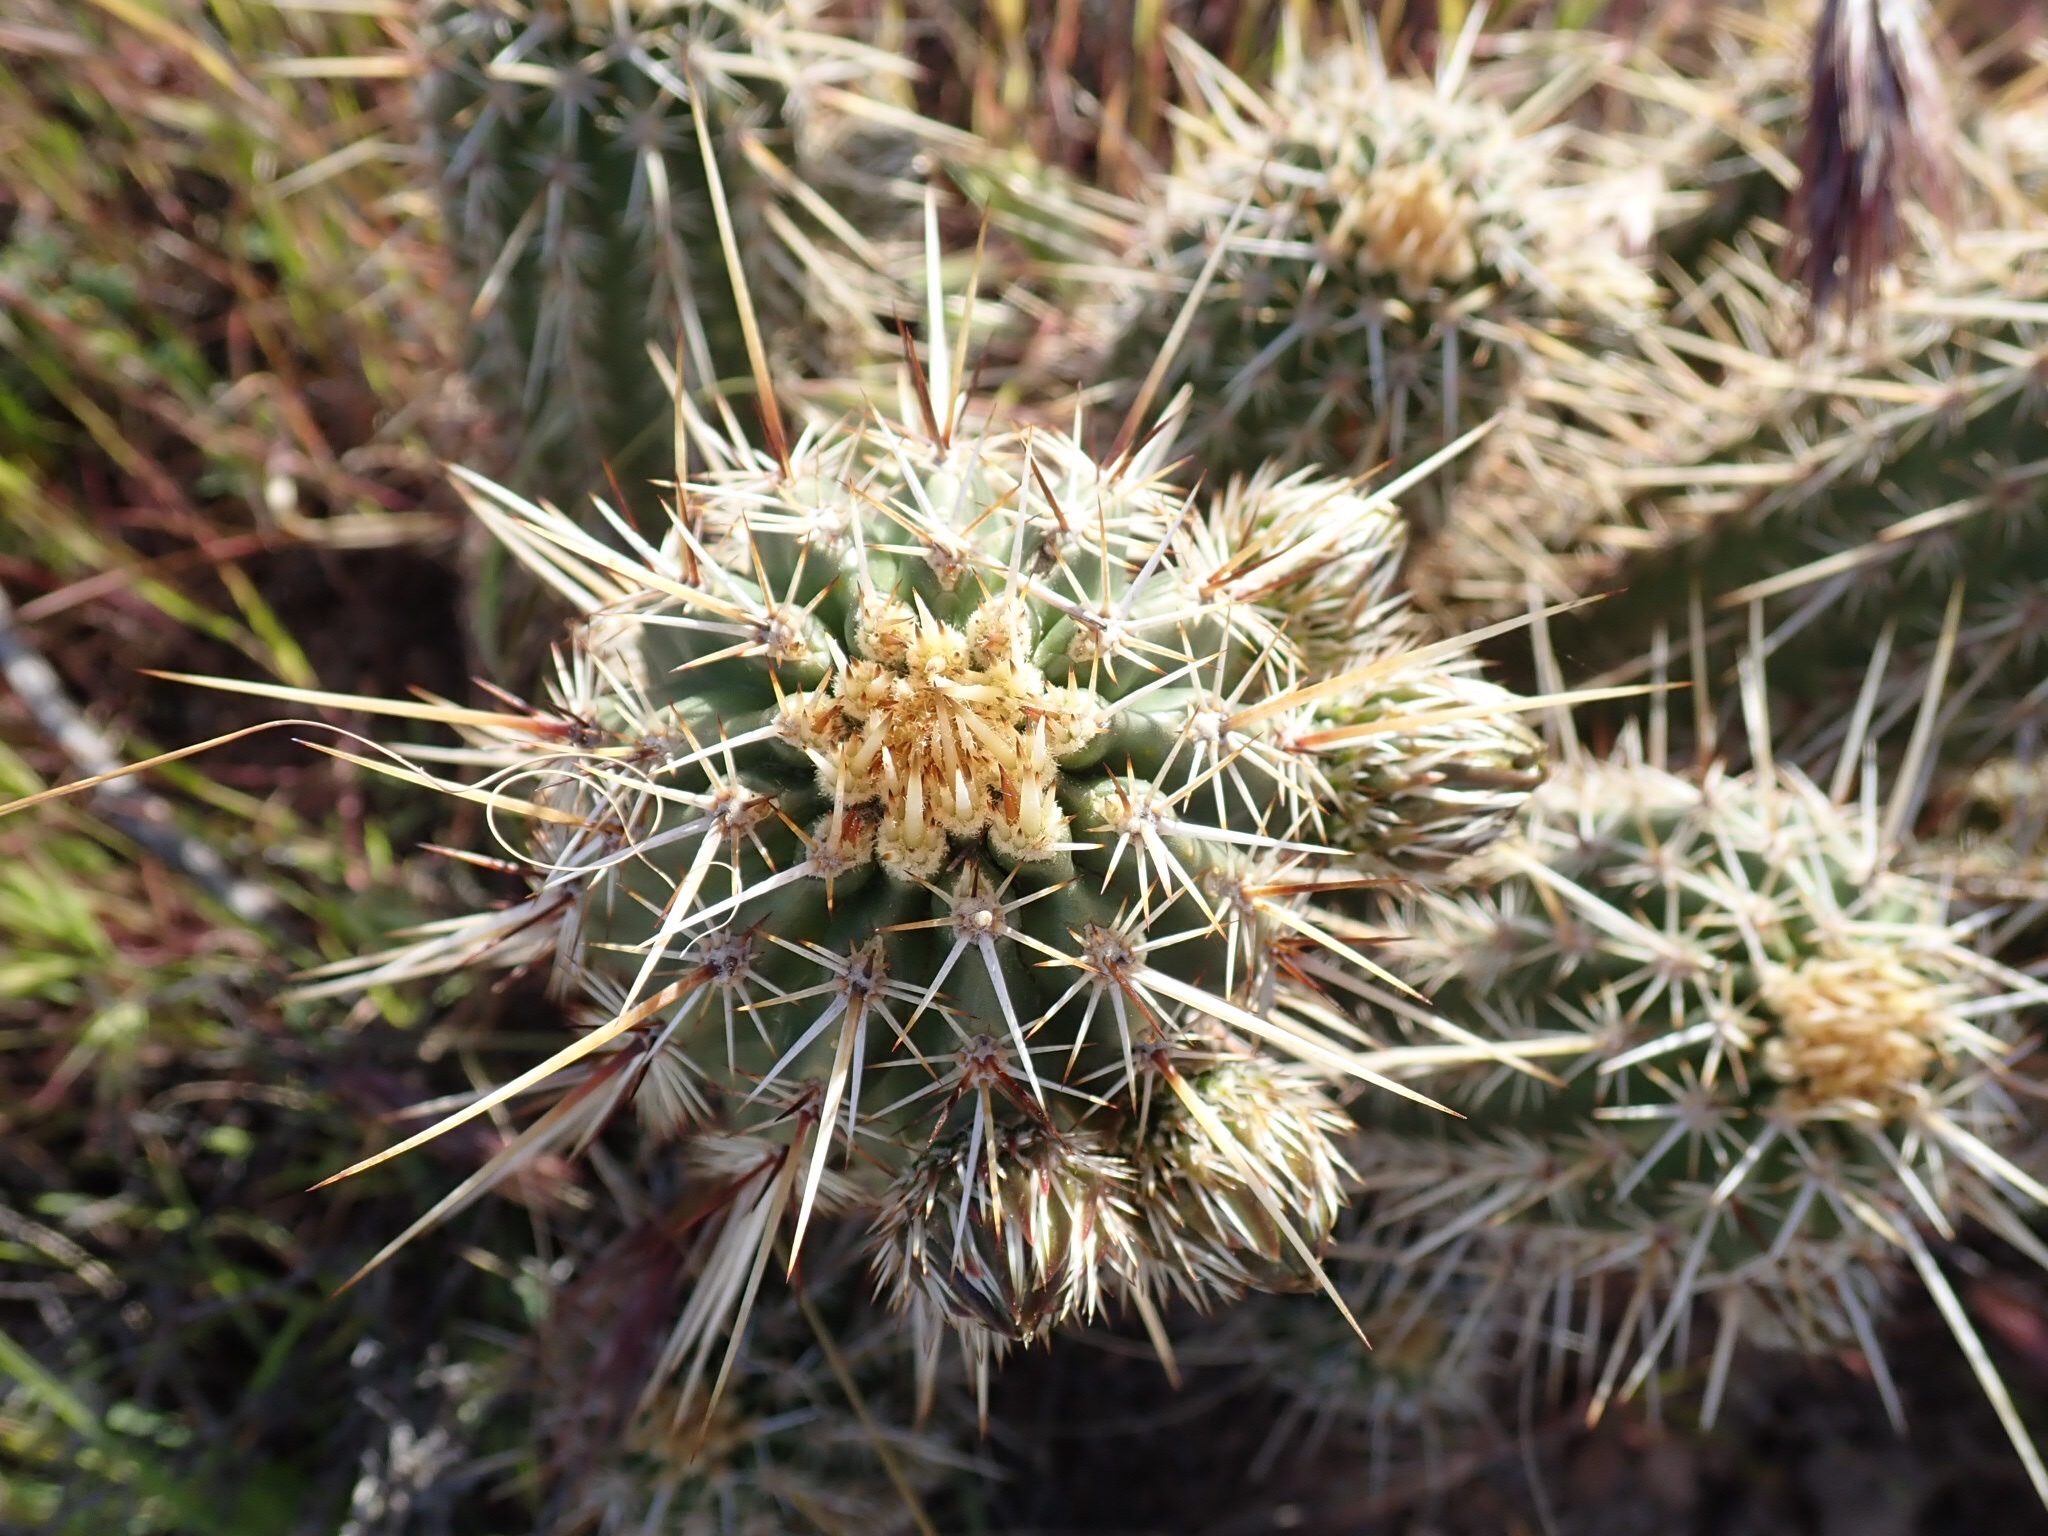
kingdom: Plantae
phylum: Tracheophyta
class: Magnoliopsida
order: Caryophyllales
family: Cactaceae
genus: Echinocereus
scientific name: Echinocereus fasciculatus
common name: Bundle hedgehog
